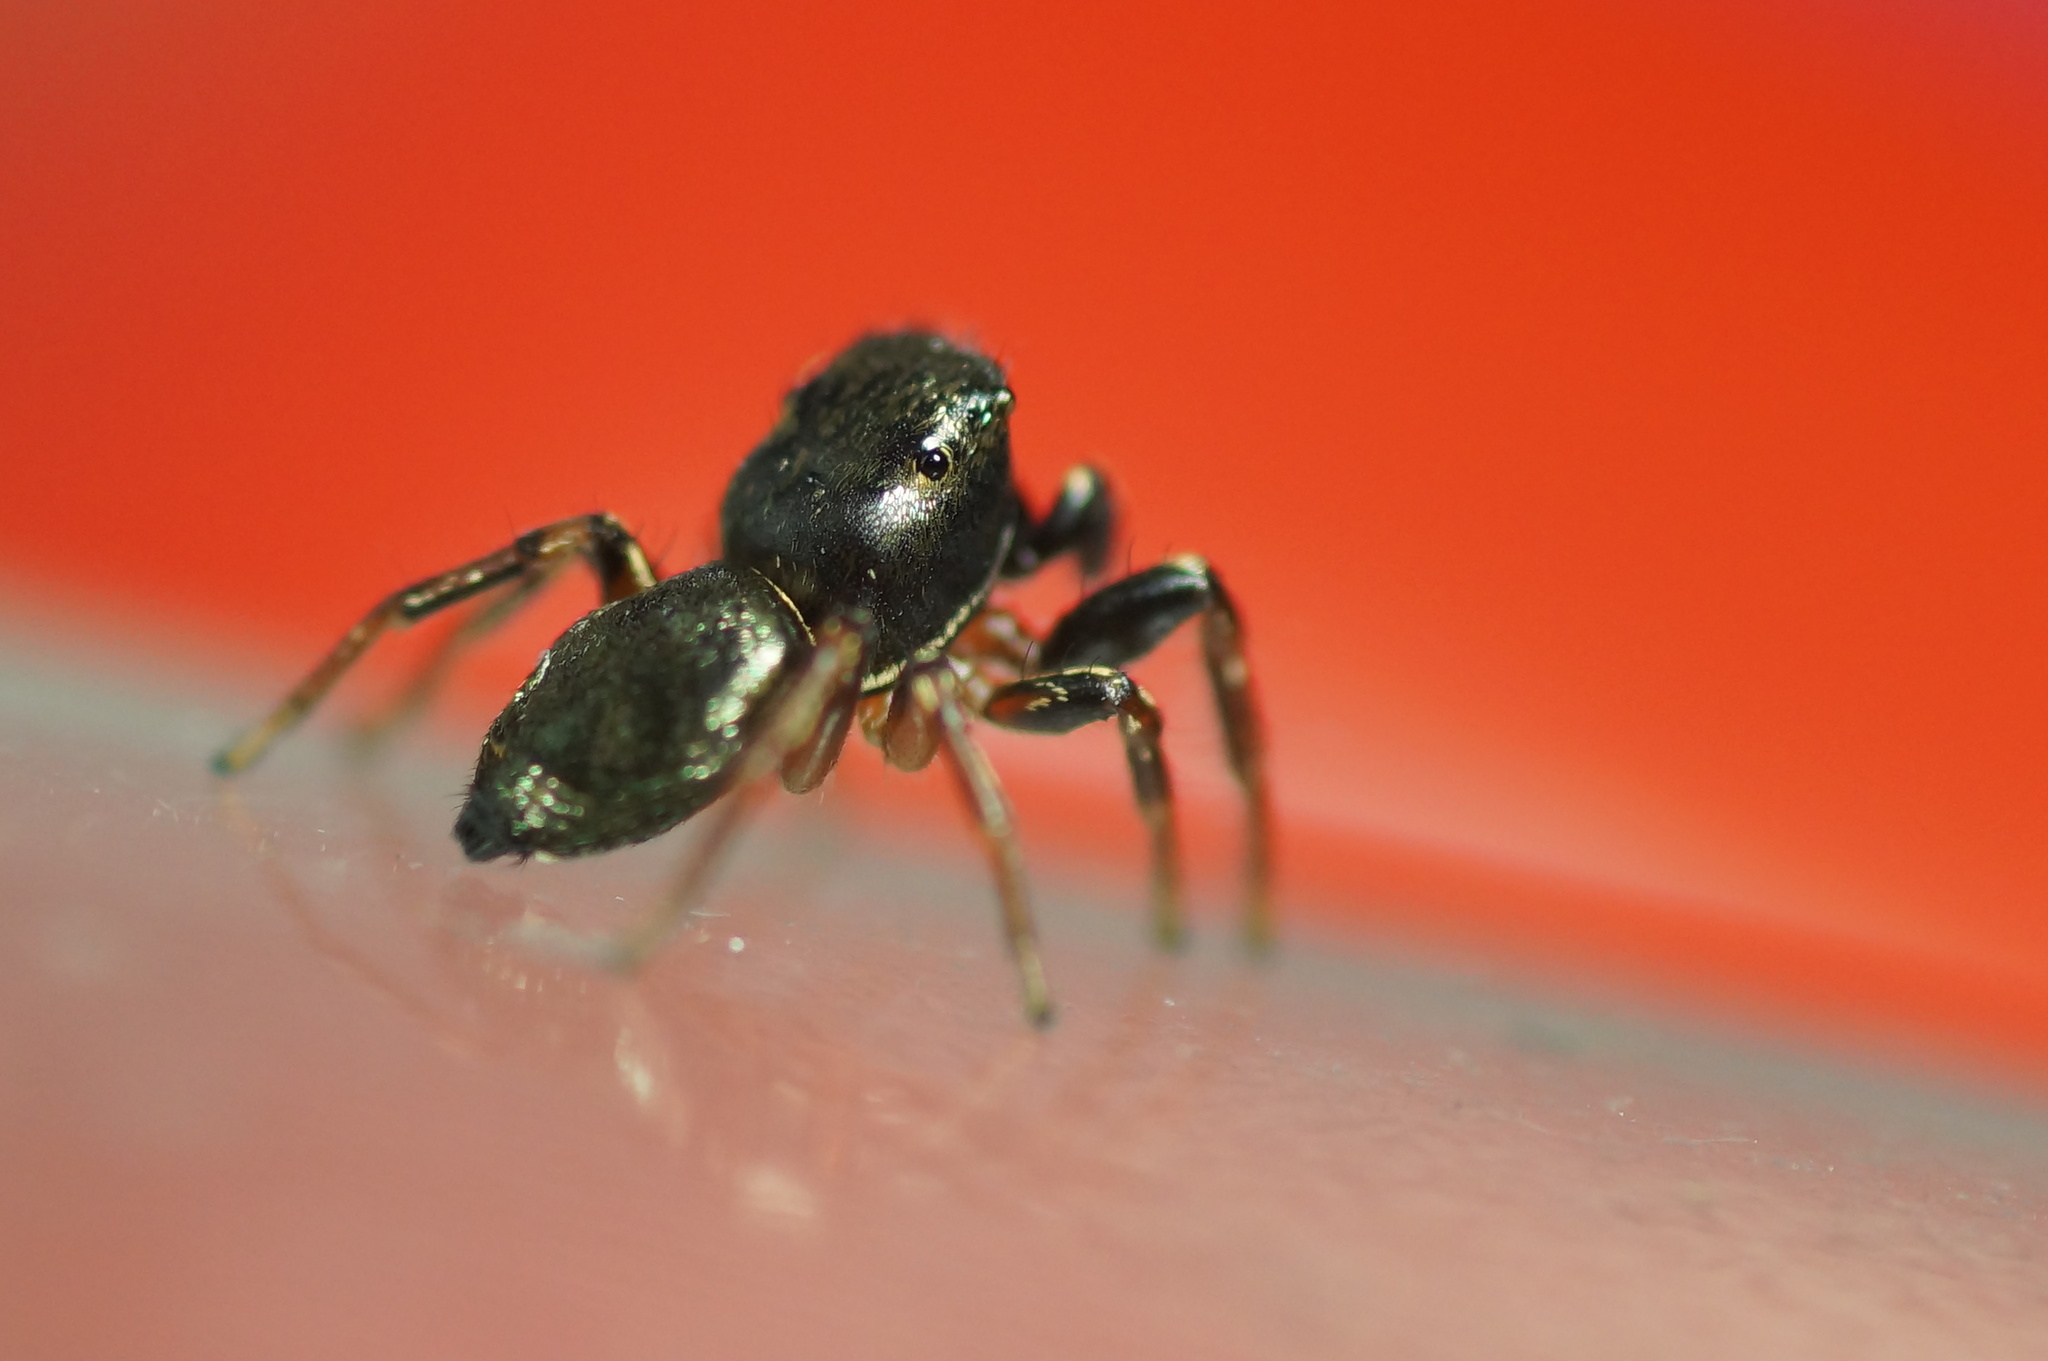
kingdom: Animalia
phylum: Arthropoda
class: Arachnida
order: Araneae
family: Salticidae
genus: Heliophanus
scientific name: Heliophanus auratus
